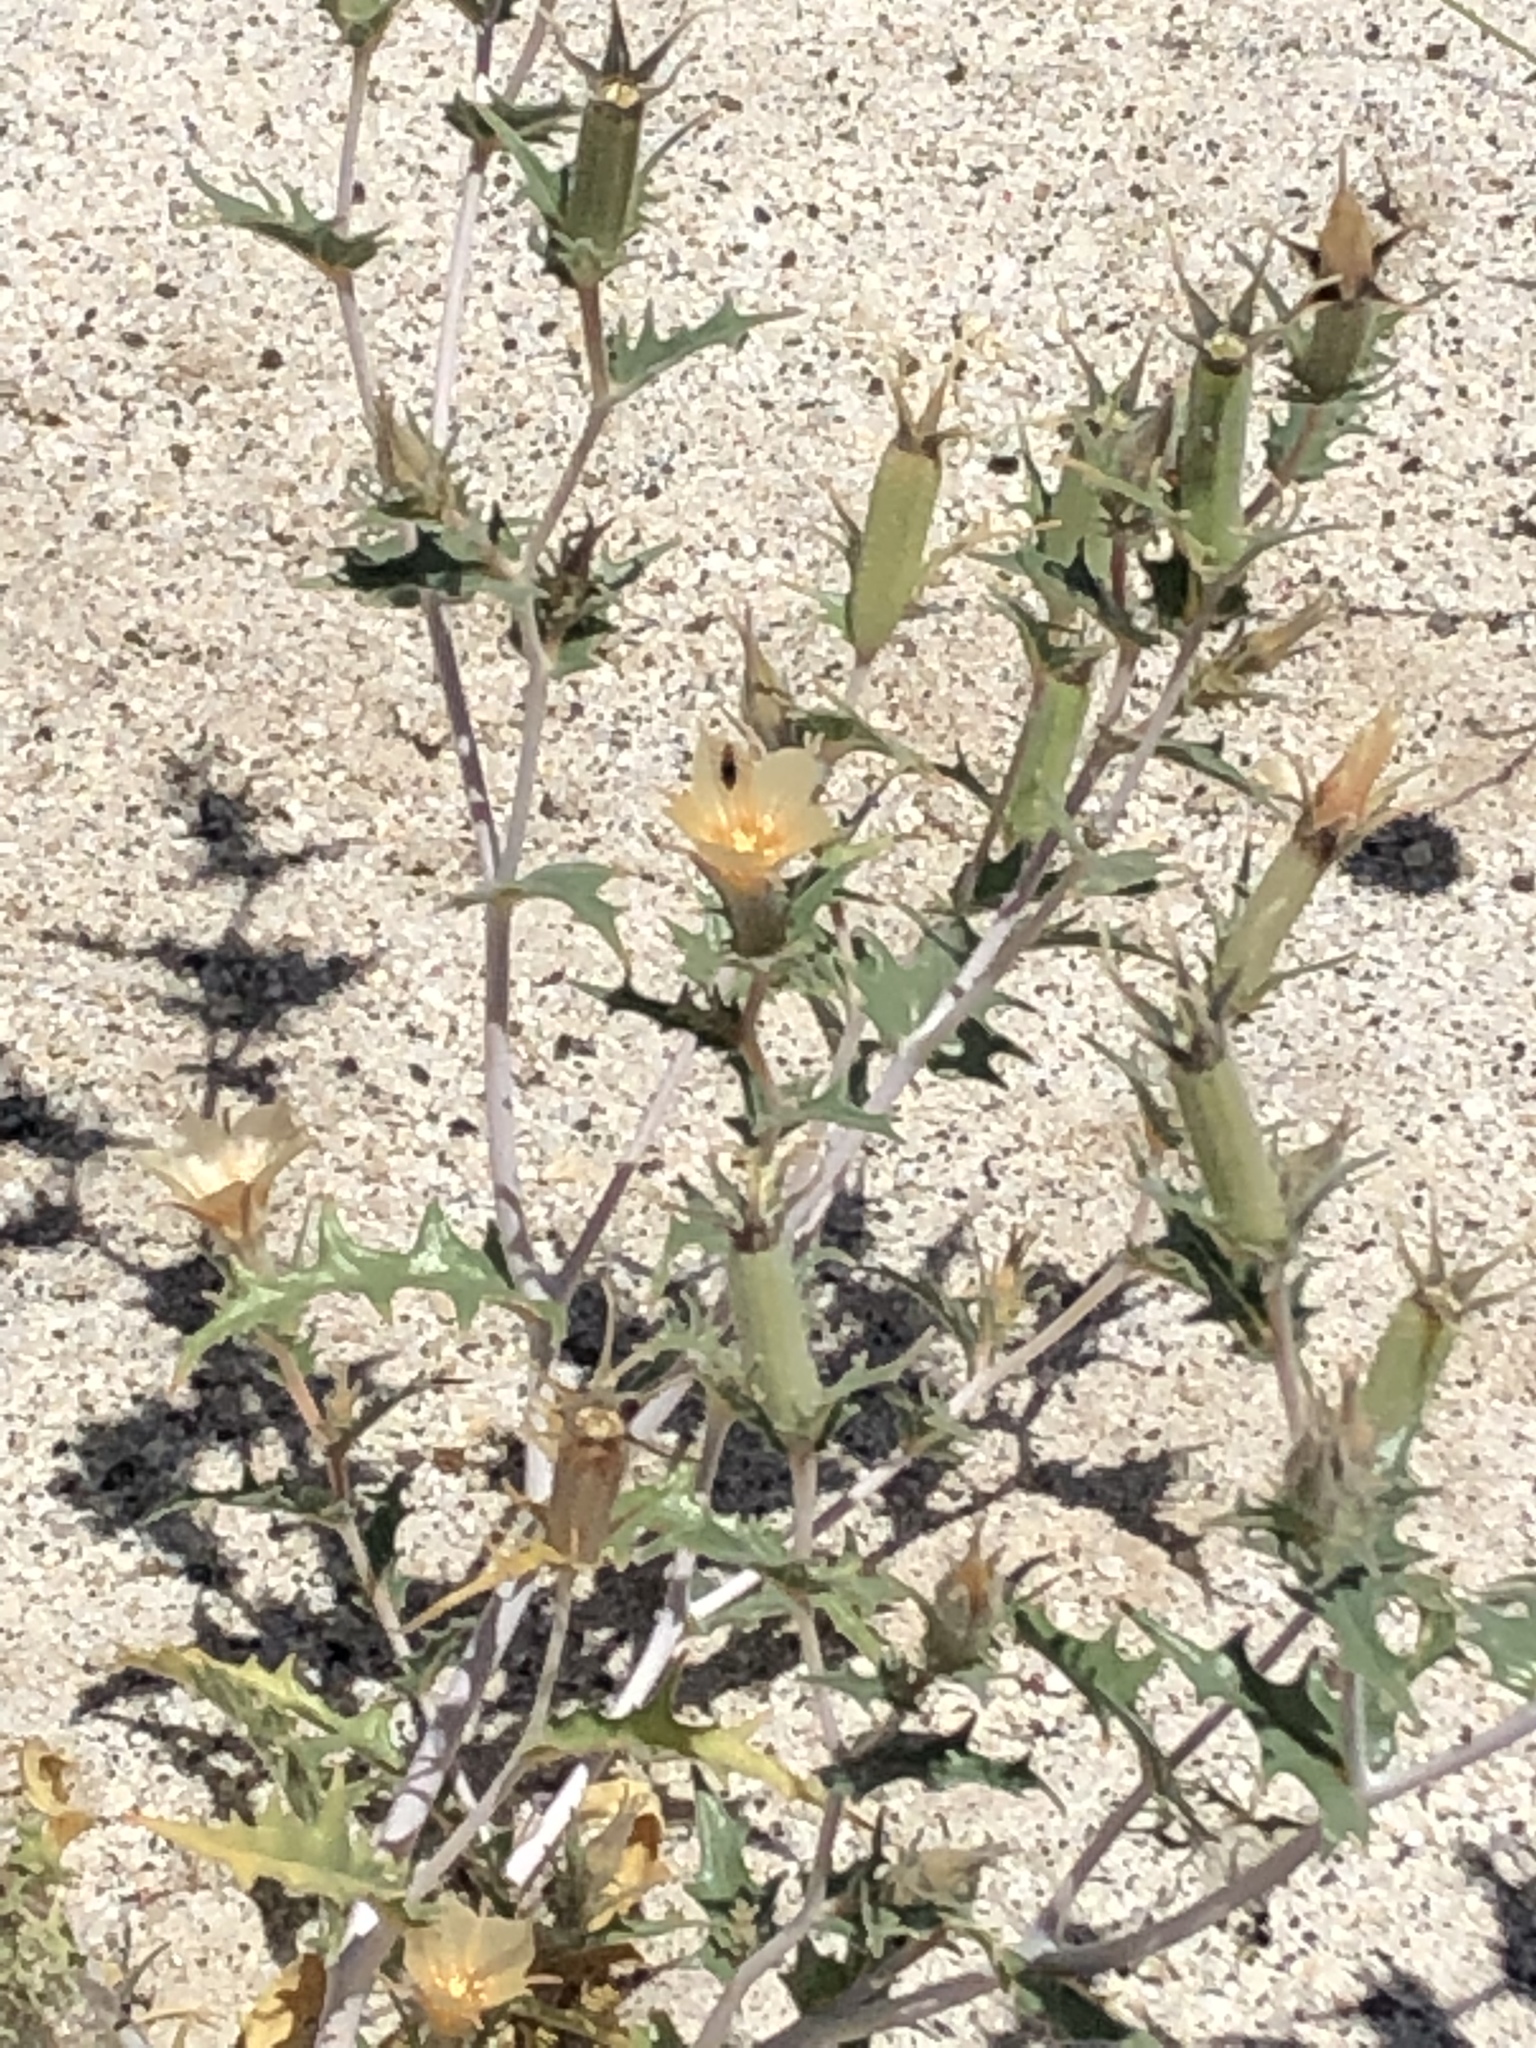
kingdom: Plantae
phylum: Tracheophyta
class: Magnoliopsida
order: Cornales
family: Loasaceae
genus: Mentzelia
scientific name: Mentzelia hirsutissima
